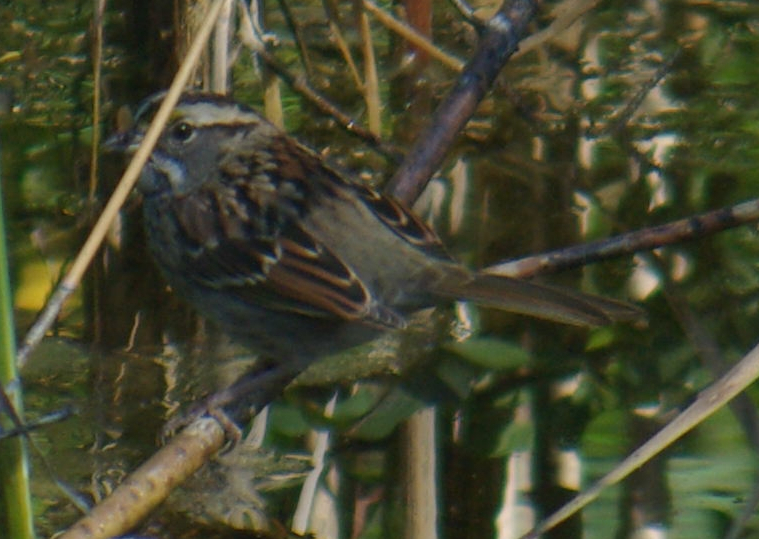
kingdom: Animalia
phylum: Chordata
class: Aves
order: Passeriformes
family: Passerellidae
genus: Zonotrichia
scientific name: Zonotrichia albicollis
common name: White-throated sparrow
